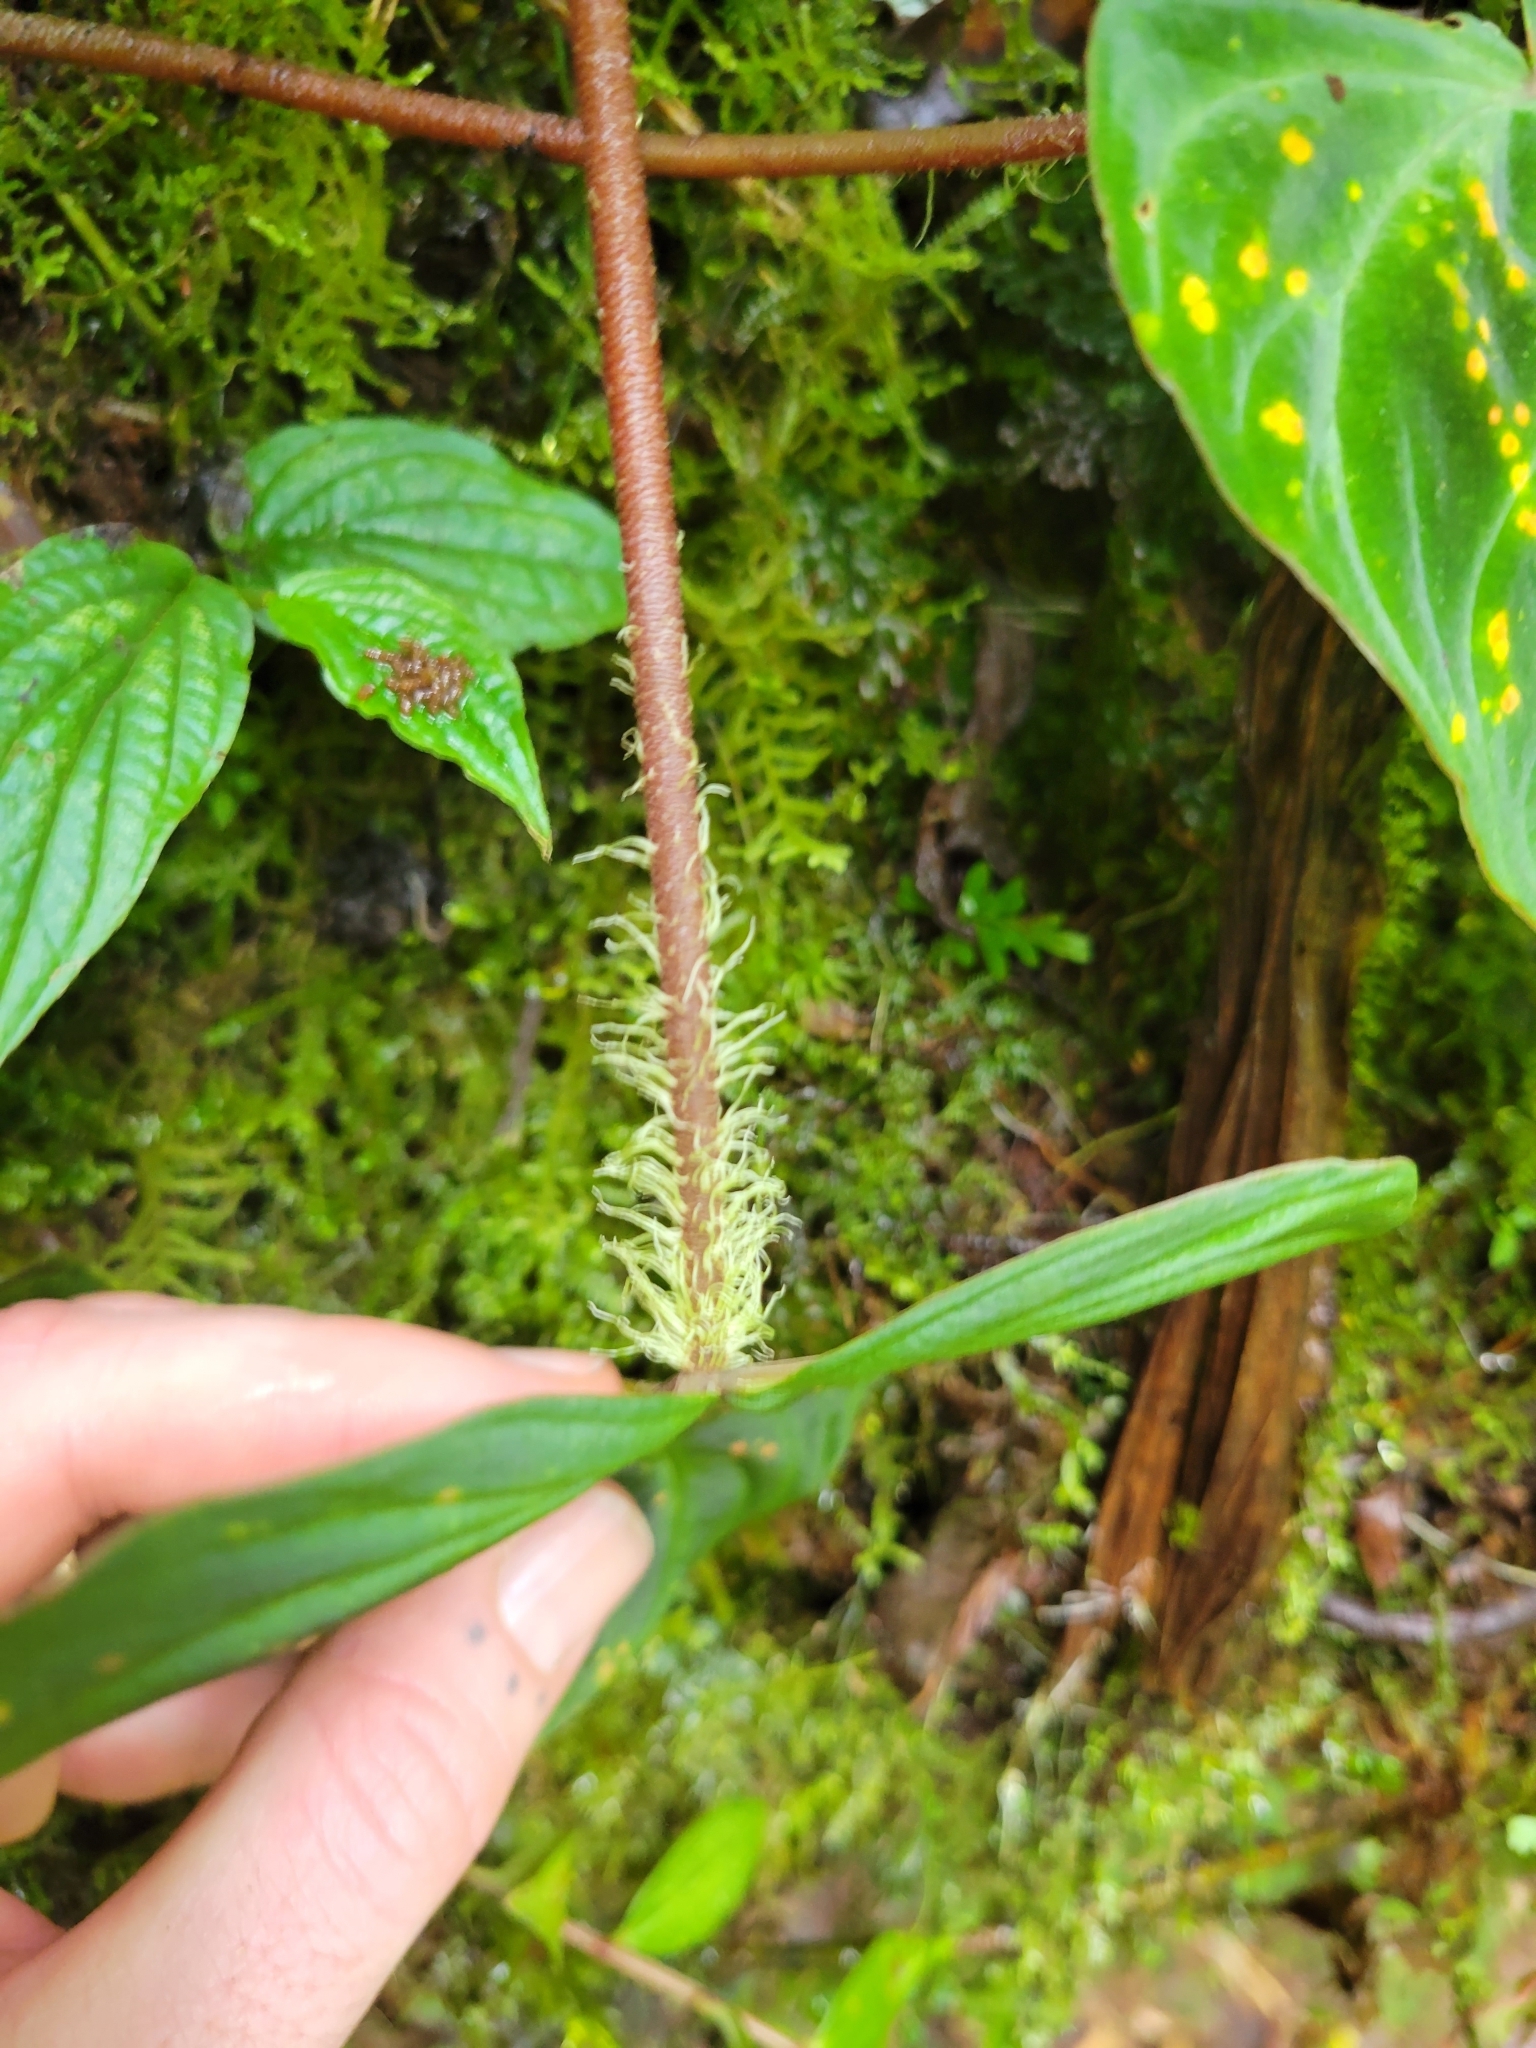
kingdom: Plantae
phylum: Tracheophyta
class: Liliopsida
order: Alismatales
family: Araceae
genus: Philodendron
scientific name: Philodendron verrucosum
